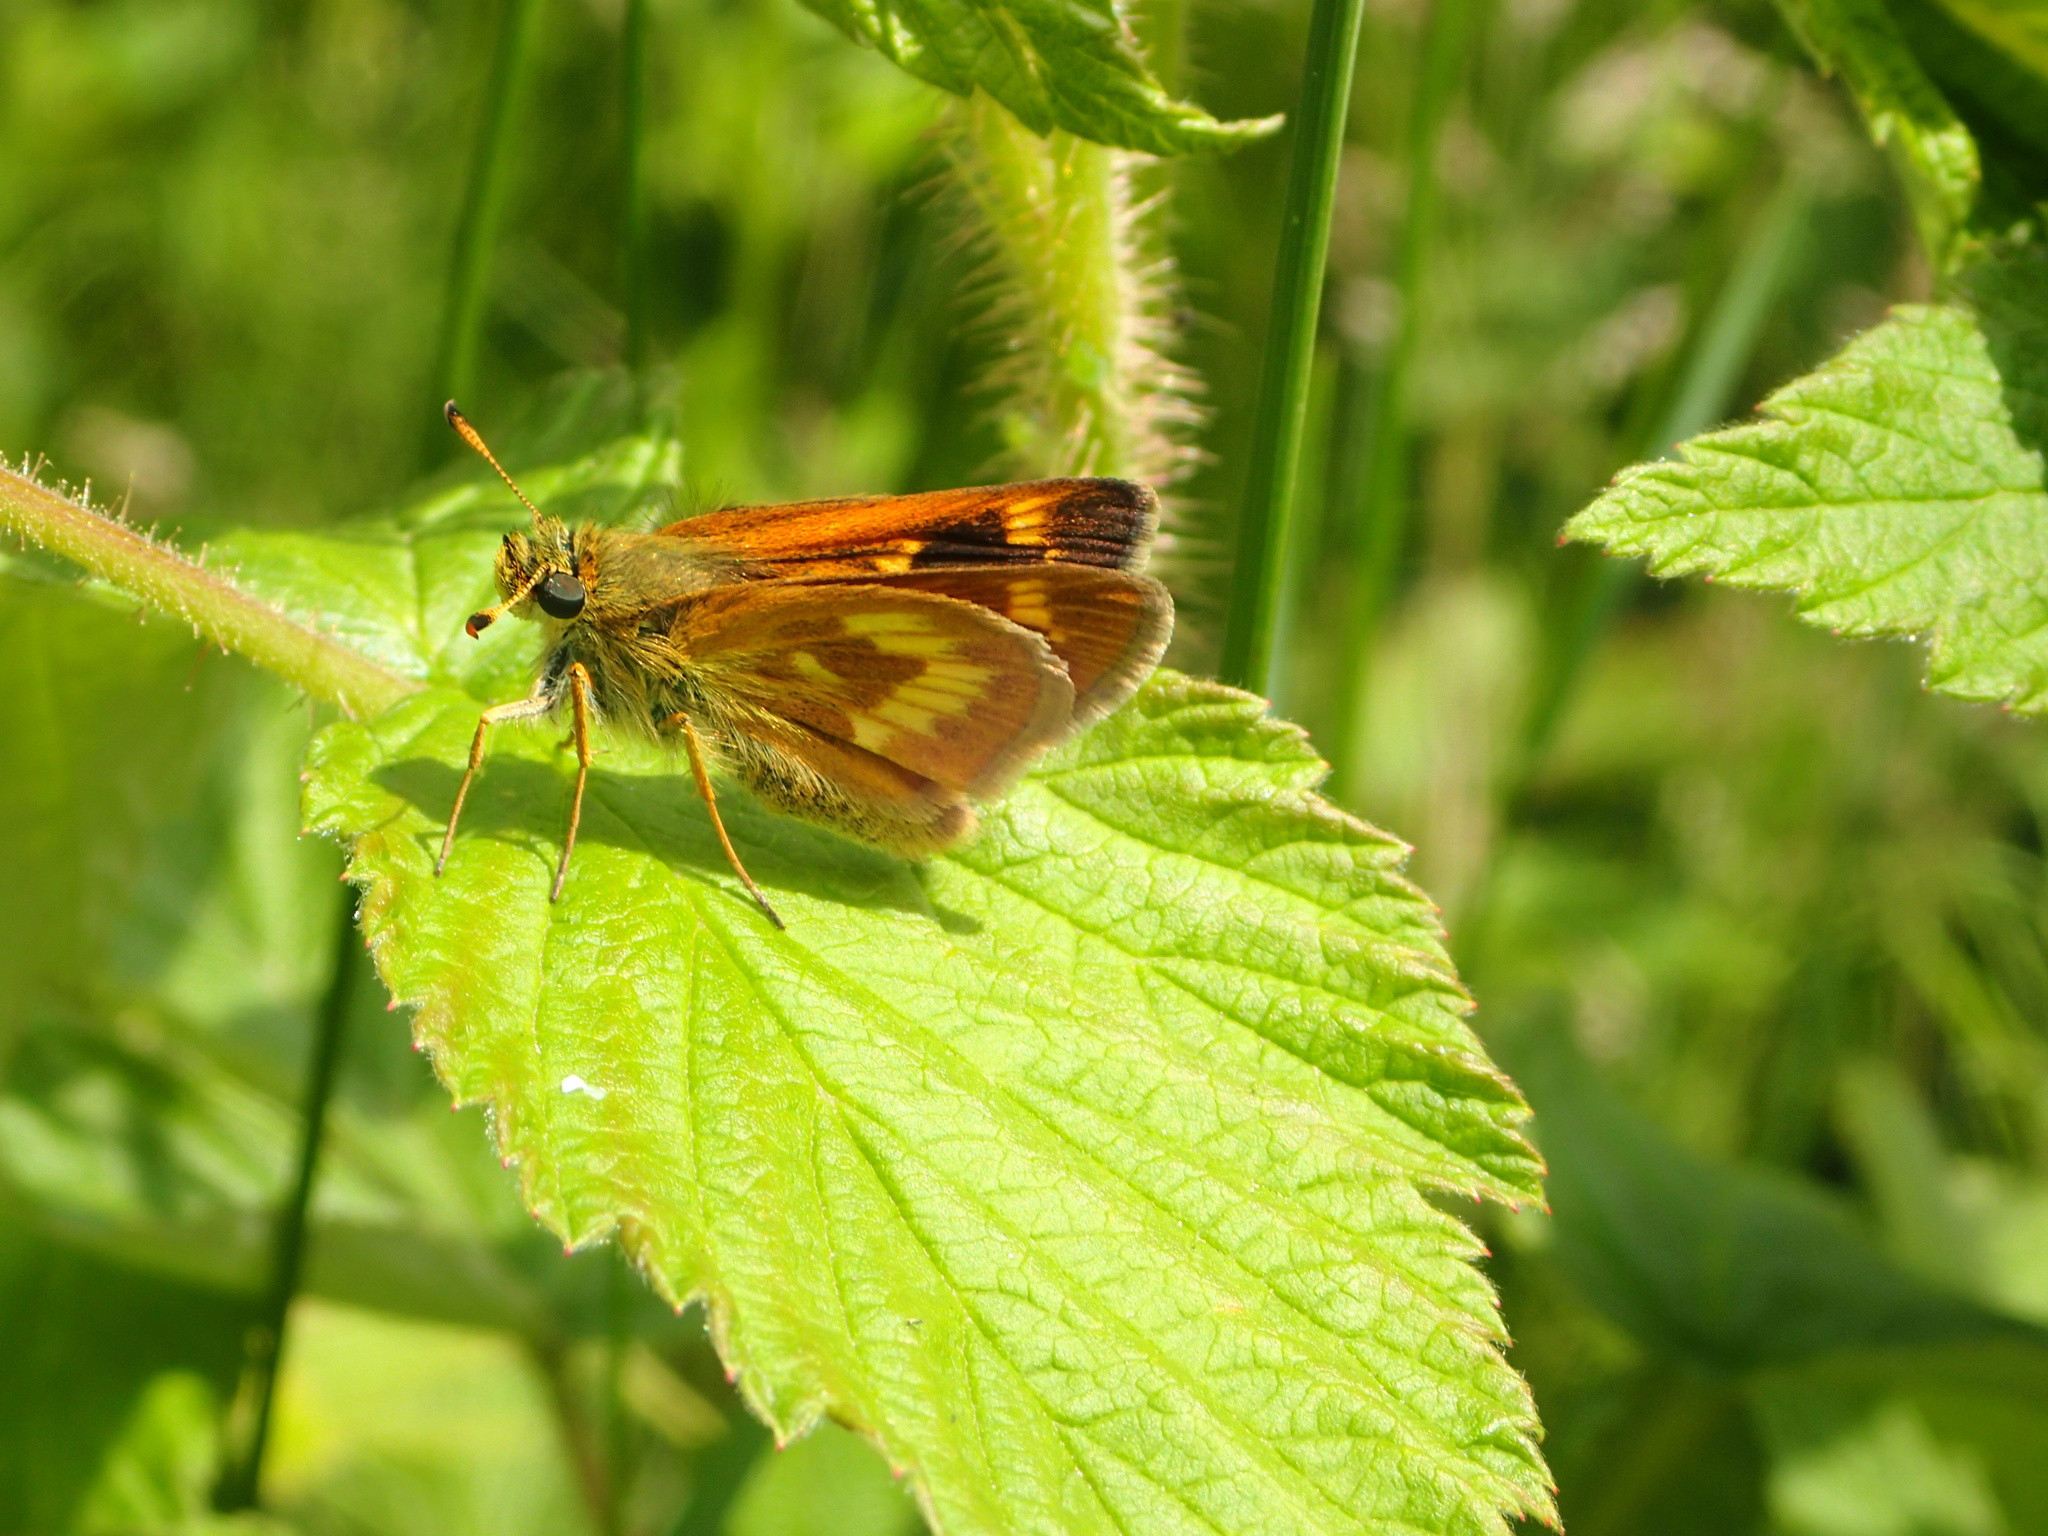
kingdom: Animalia
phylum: Arthropoda
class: Insecta
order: Lepidoptera
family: Hesperiidae
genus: Polites
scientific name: Polites mystic
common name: Long dash
